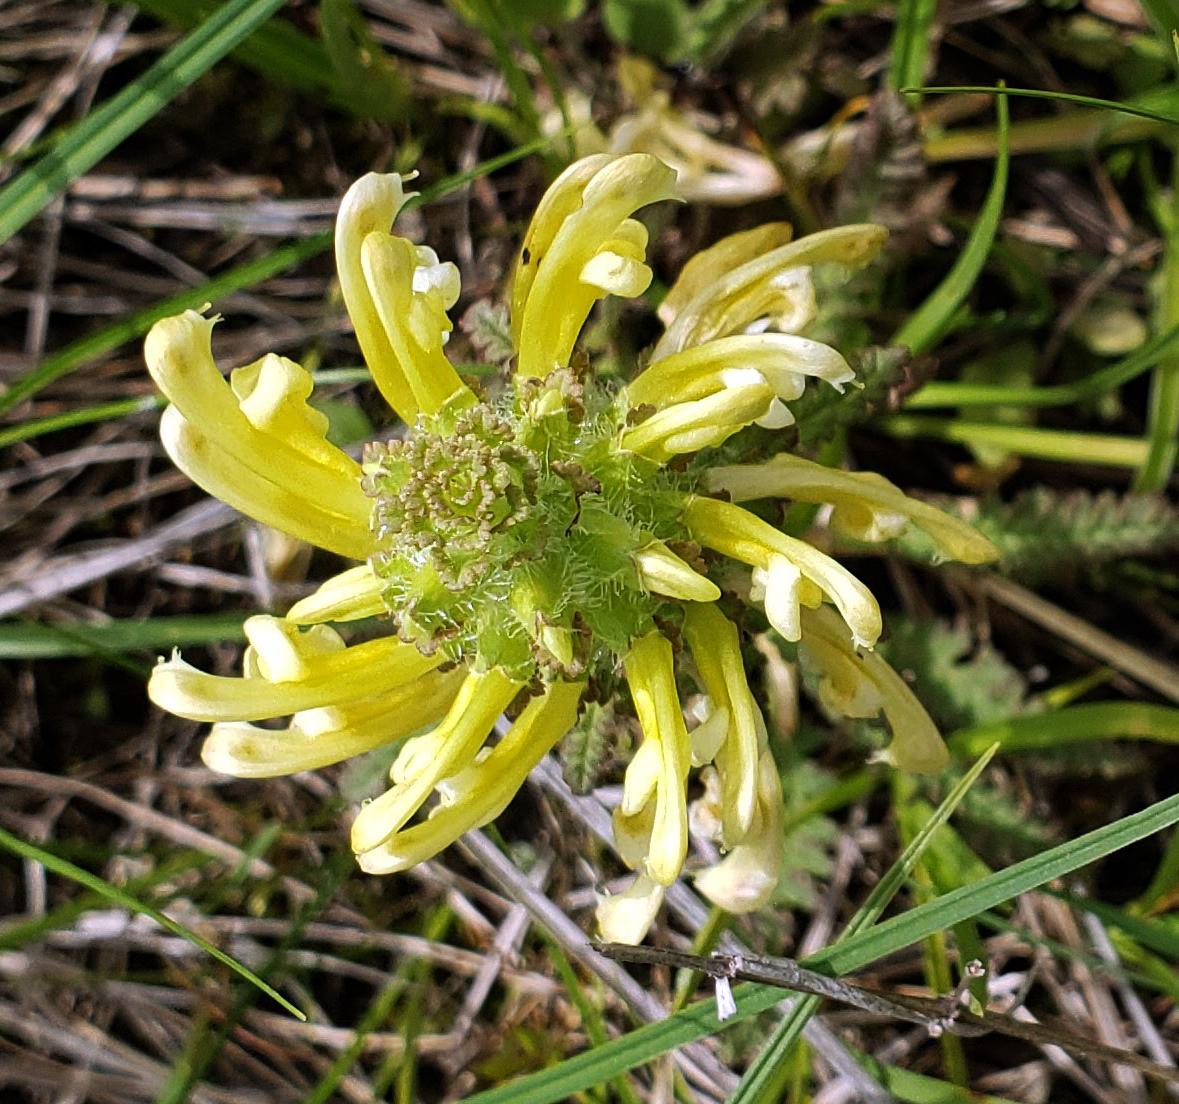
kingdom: Plantae
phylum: Tracheophyta
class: Magnoliopsida
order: Lamiales
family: Orobanchaceae
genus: Pedicularis
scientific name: Pedicularis canadensis
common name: Early lousewort
